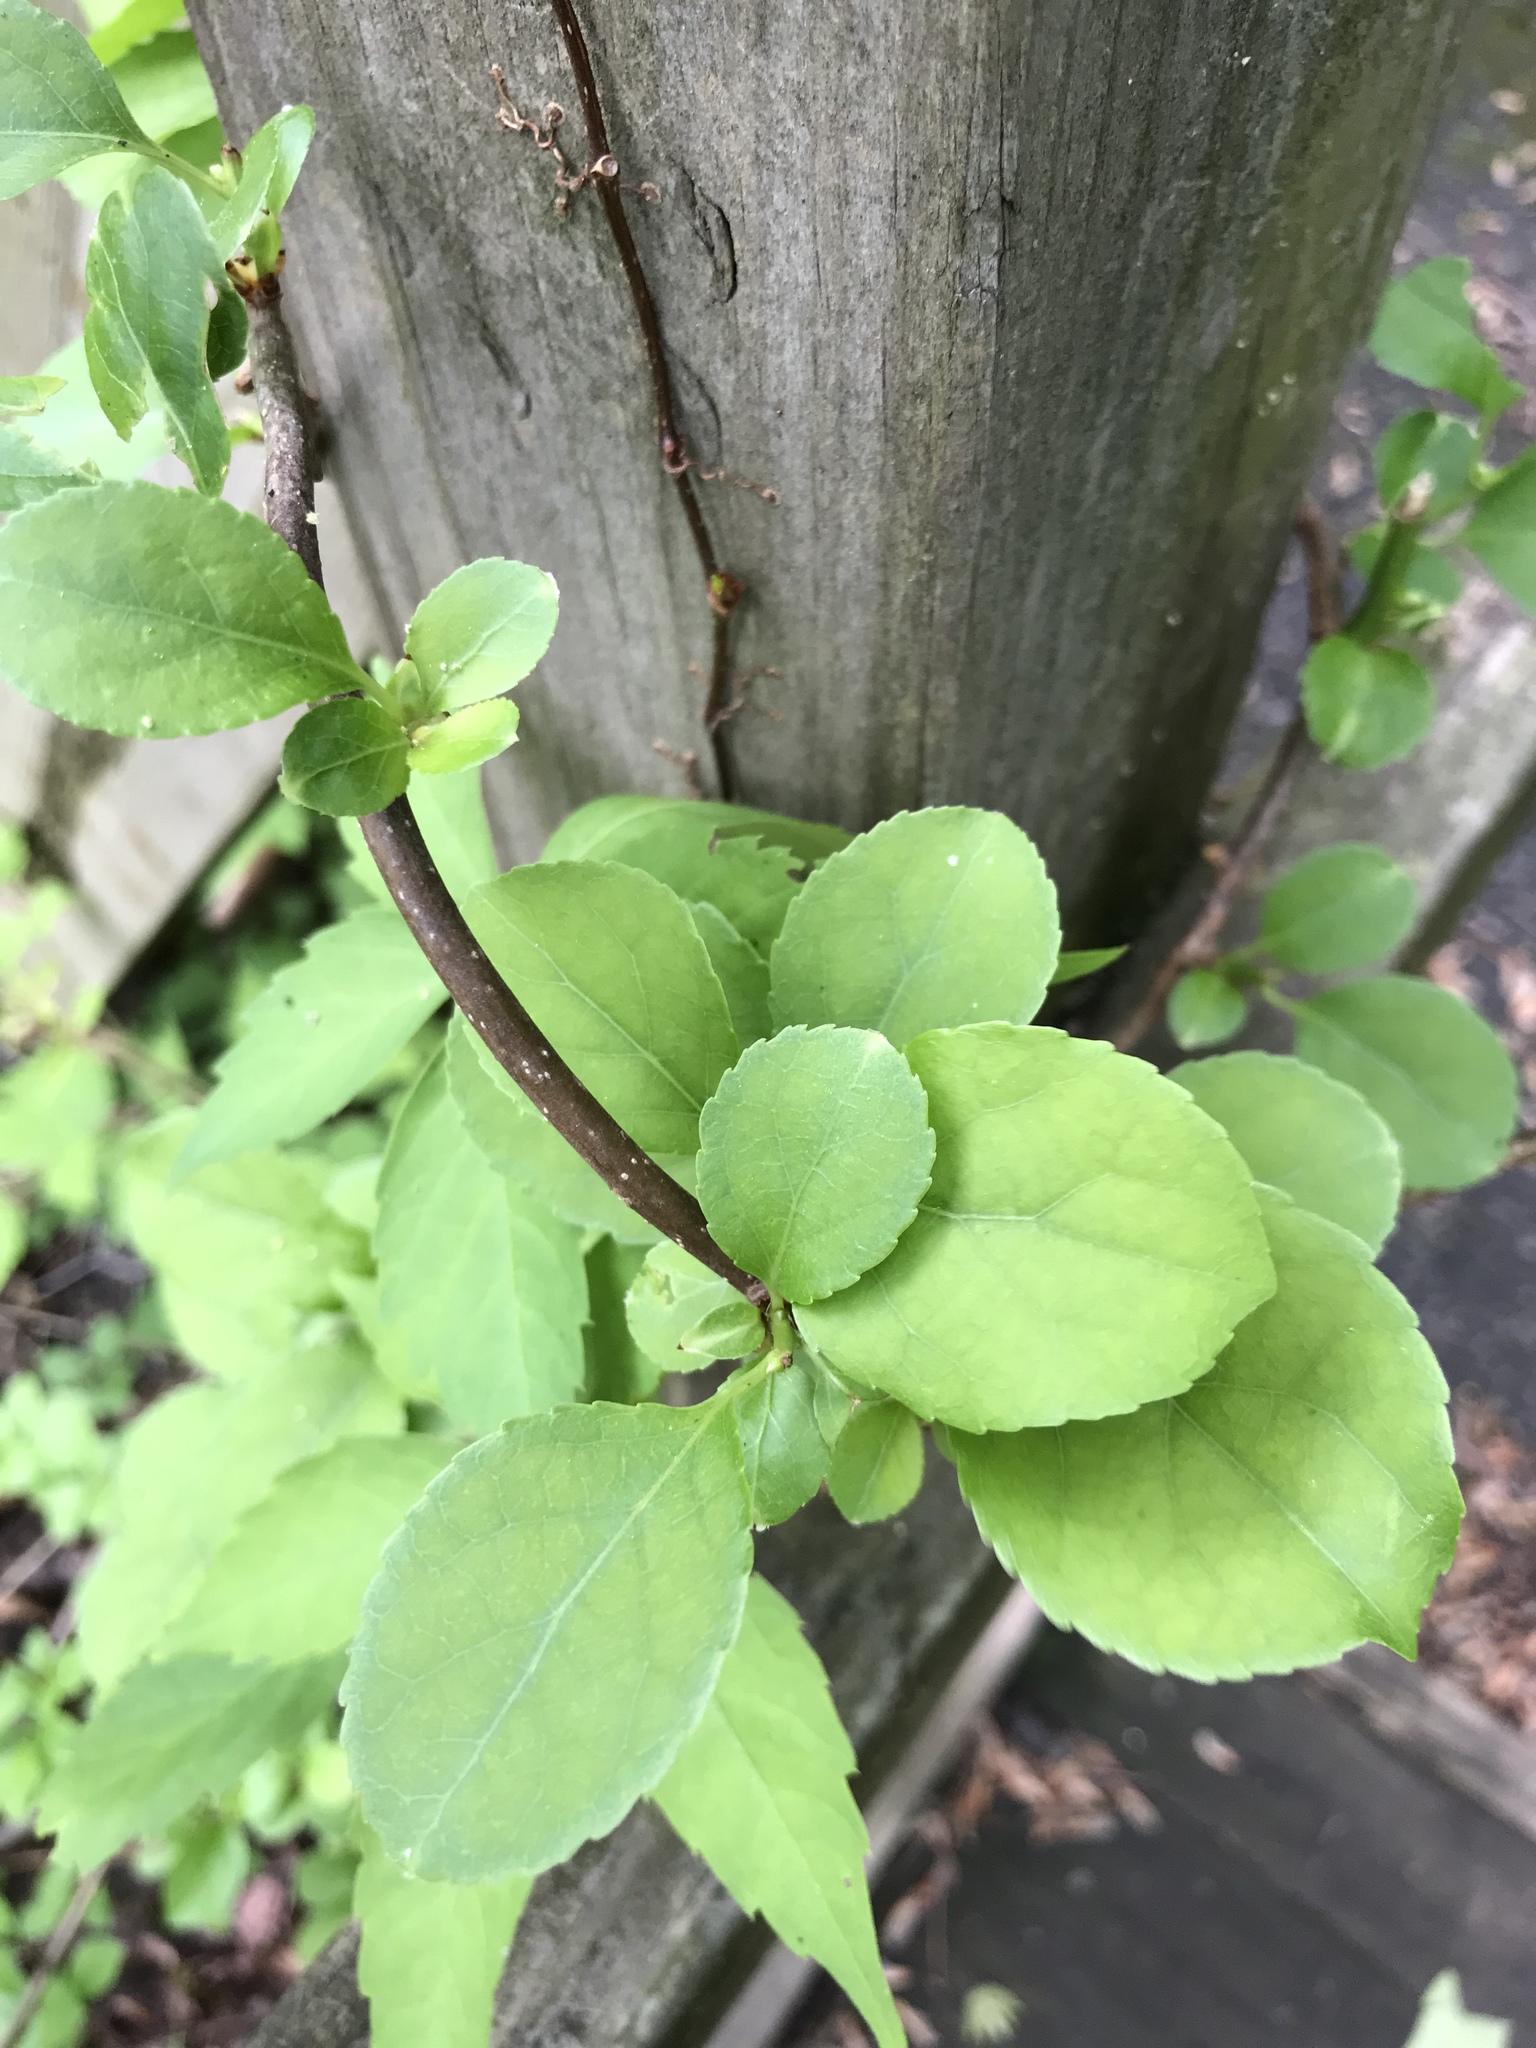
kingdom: Plantae
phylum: Tracheophyta
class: Magnoliopsida
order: Celastrales
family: Celastraceae
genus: Celastrus
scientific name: Celastrus orbiculatus
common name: Oriental bittersweet
